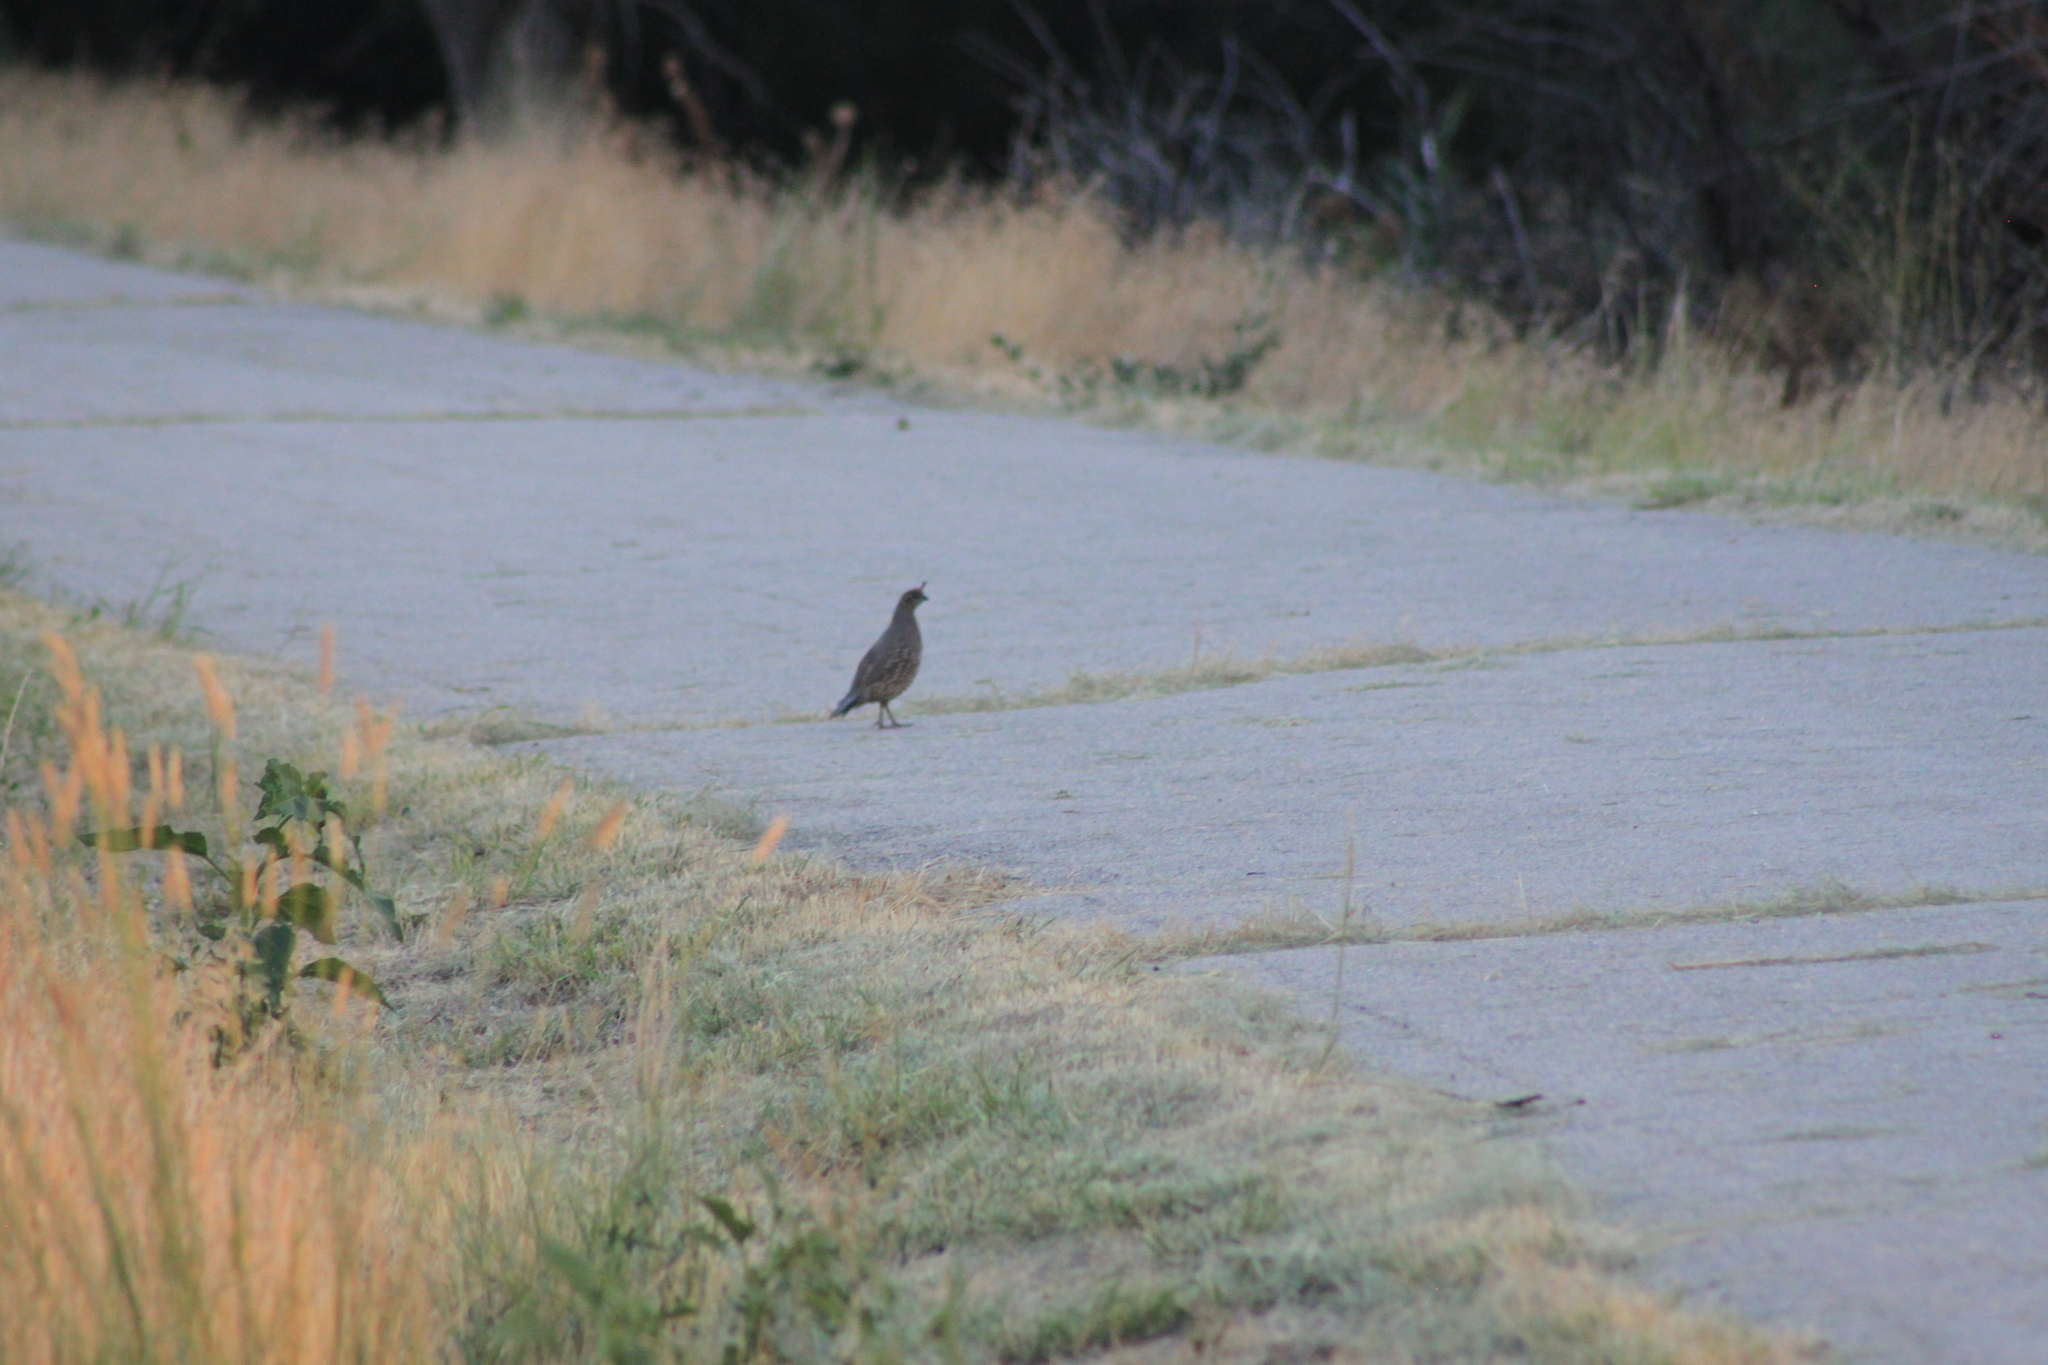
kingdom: Animalia
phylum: Chordata
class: Aves
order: Galliformes
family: Odontophoridae
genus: Callipepla
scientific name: Callipepla californica
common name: California quail
